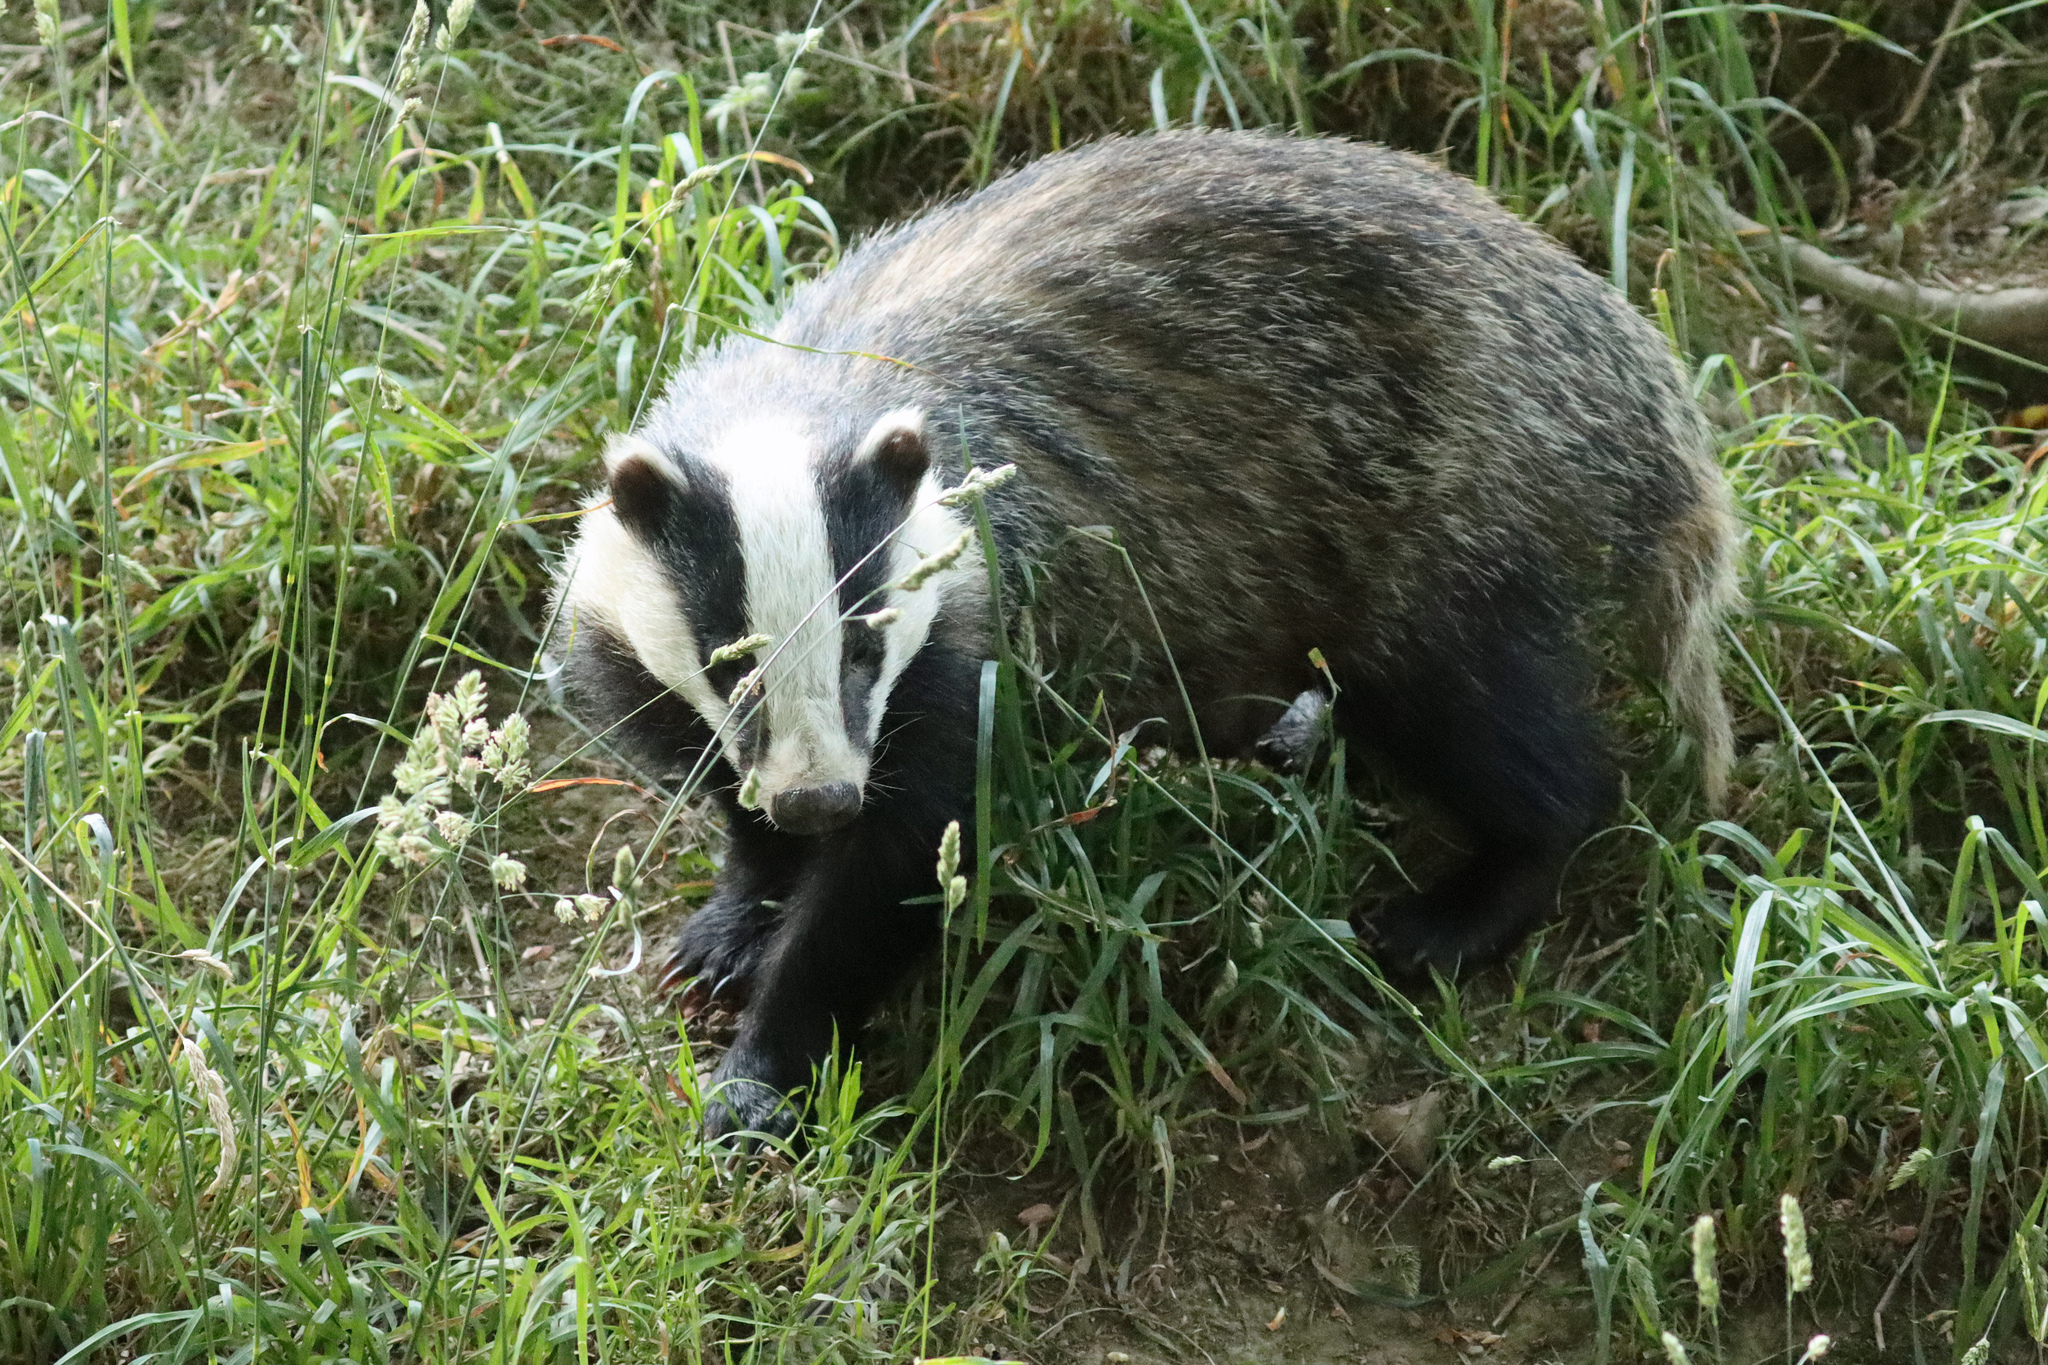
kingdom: Animalia
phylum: Chordata
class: Mammalia
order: Carnivora
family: Mustelidae
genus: Meles
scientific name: Meles meles
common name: Eurasian badger
